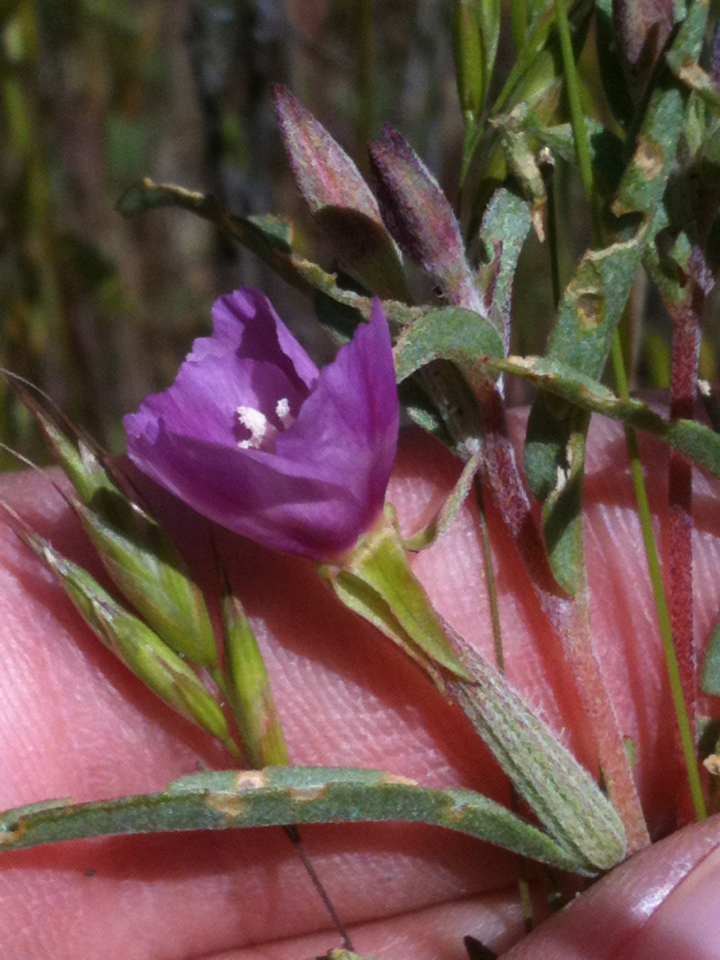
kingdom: Plantae
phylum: Tracheophyta
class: Magnoliopsida
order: Myrtales
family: Onagraceae
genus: Clarkia
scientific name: Clarkia purpurea
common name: Purple clarkia
